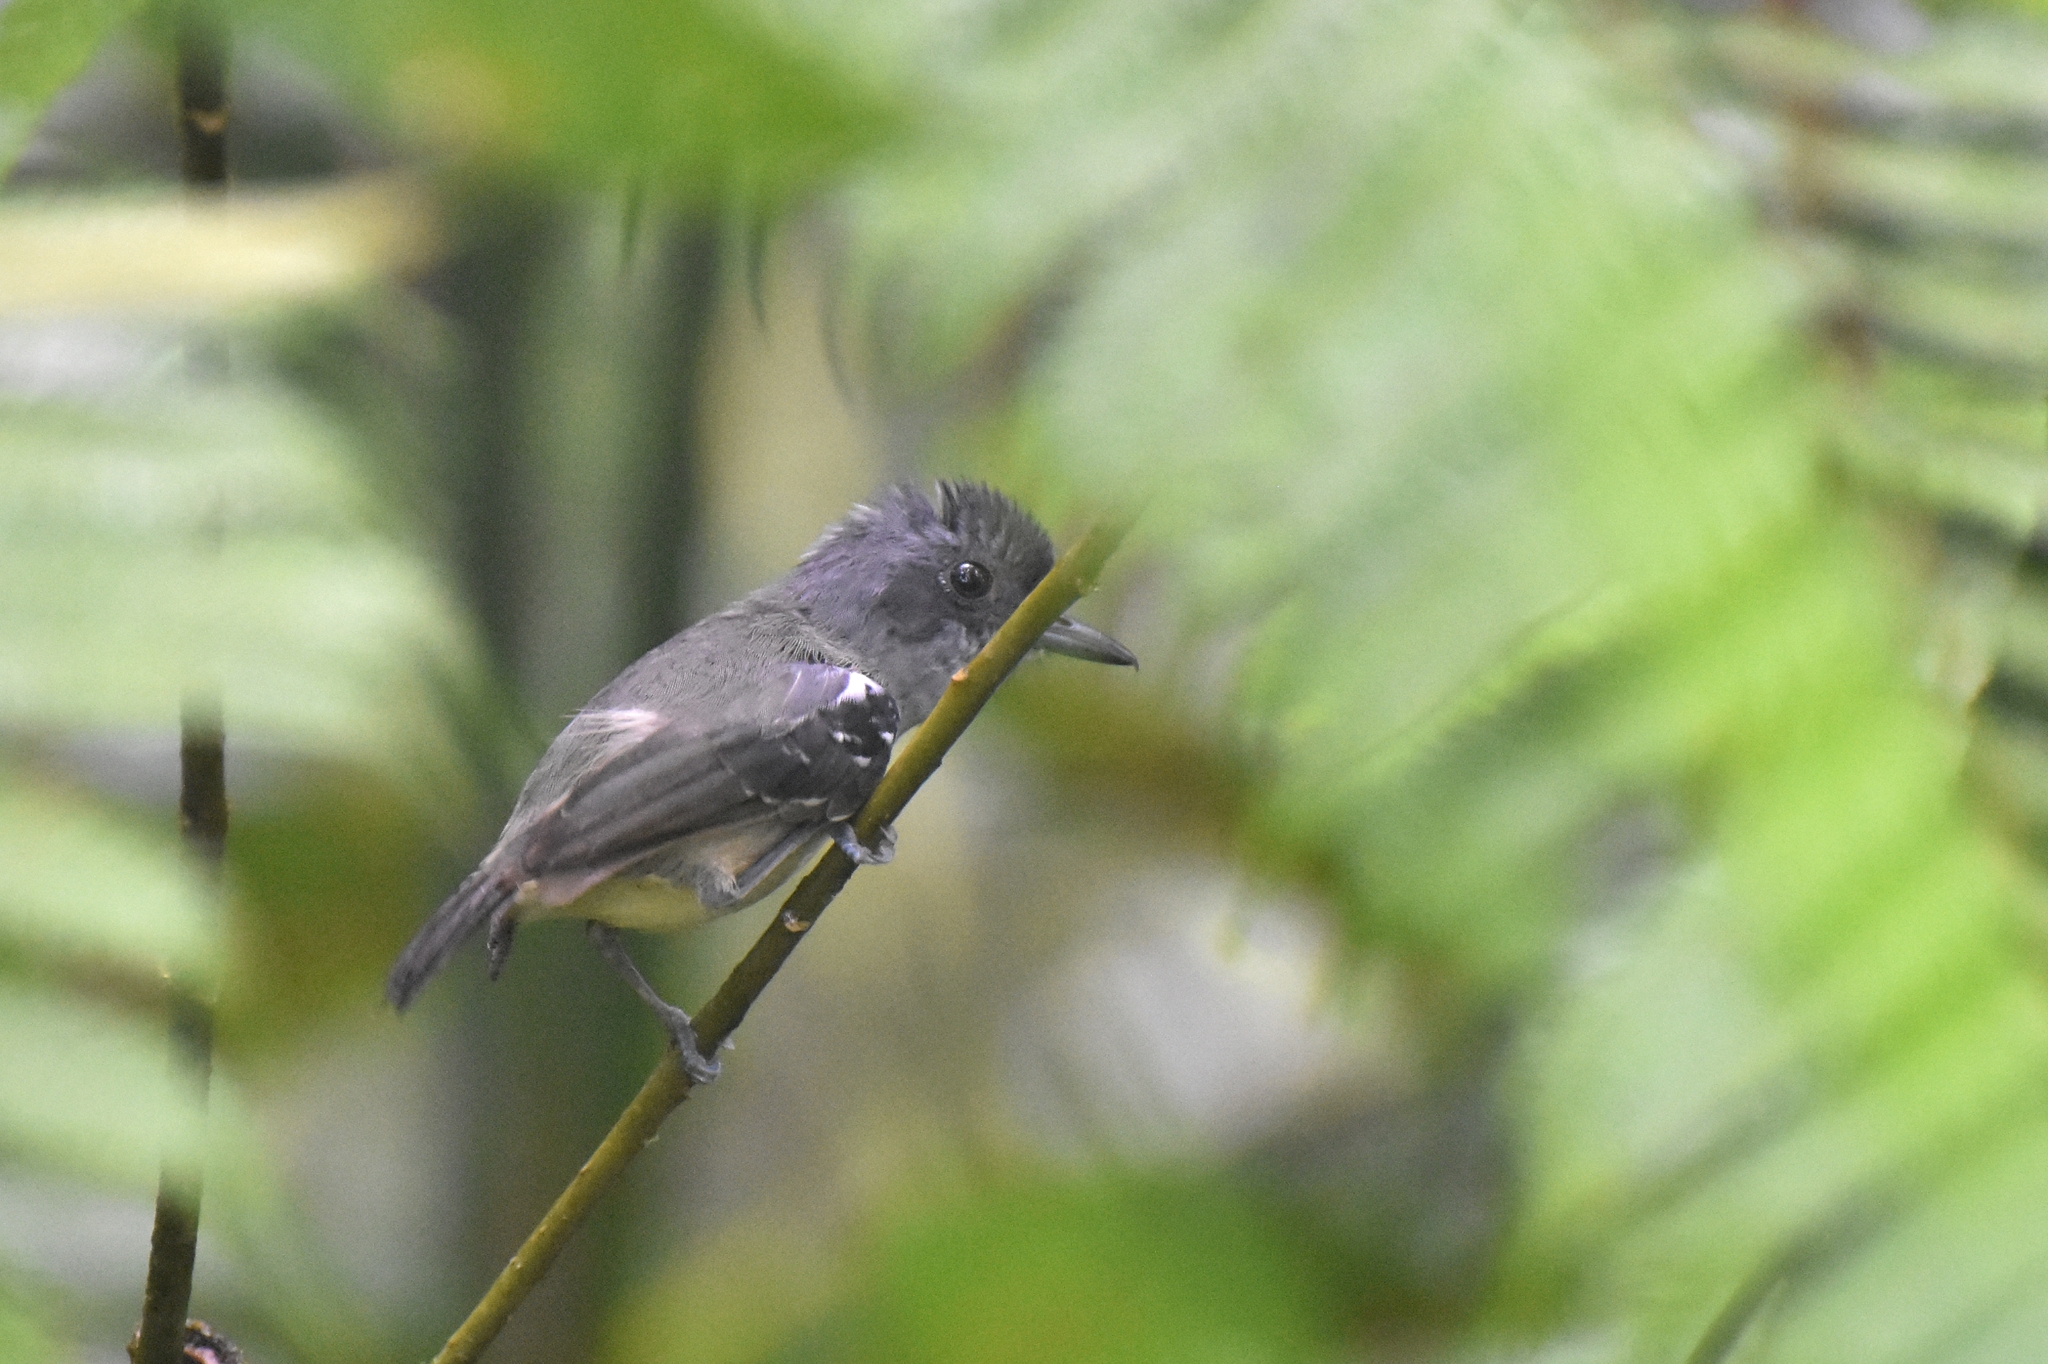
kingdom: Animalia
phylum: Chordata
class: Aves
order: Passeriformes
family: Thamnophilidae
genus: Dysithamnus
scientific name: Dysithamnus mentalis
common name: Plain antvireo
